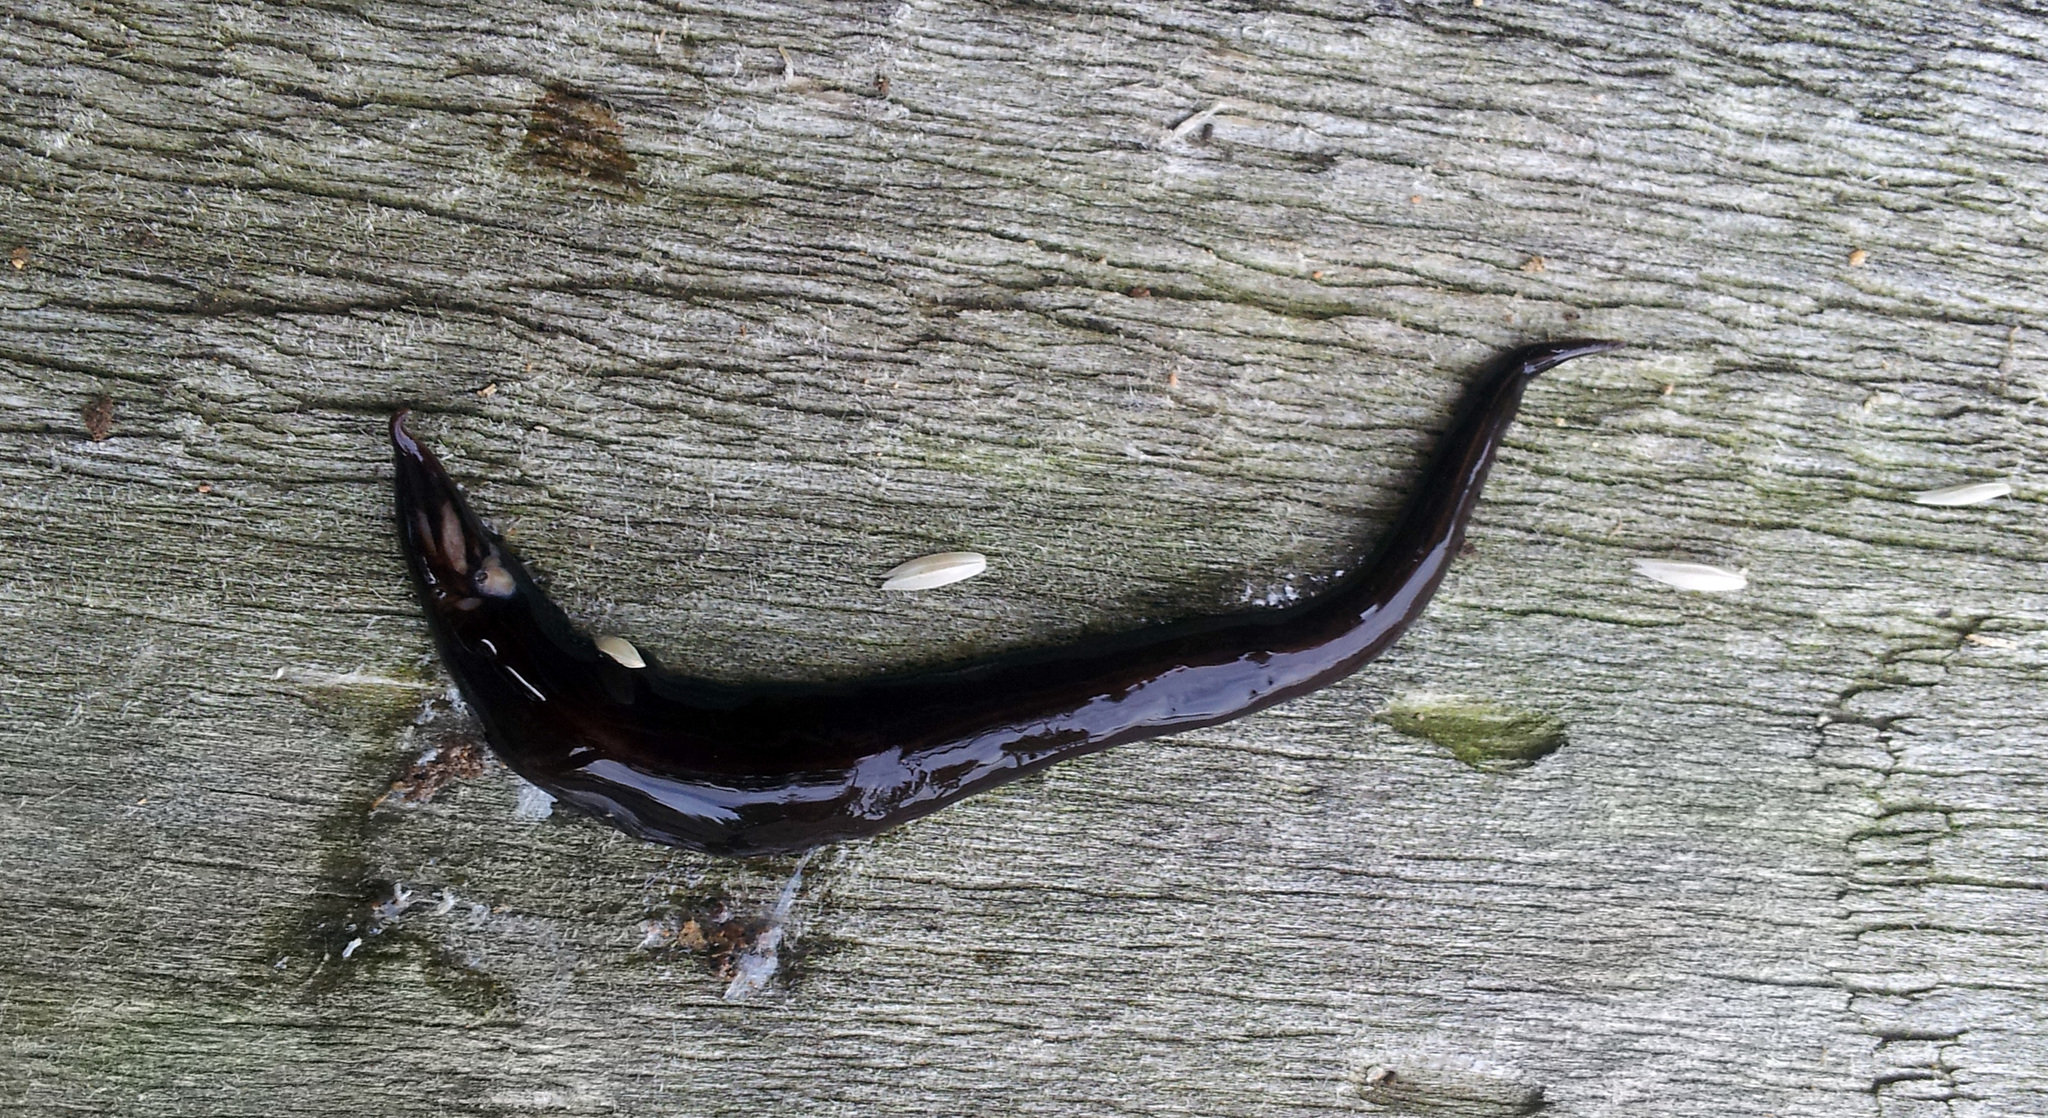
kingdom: Animalia
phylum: Platyhelminthes
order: Tricladida
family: Geoplanidae
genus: Australopacifica
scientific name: Australopacifica cucullata
